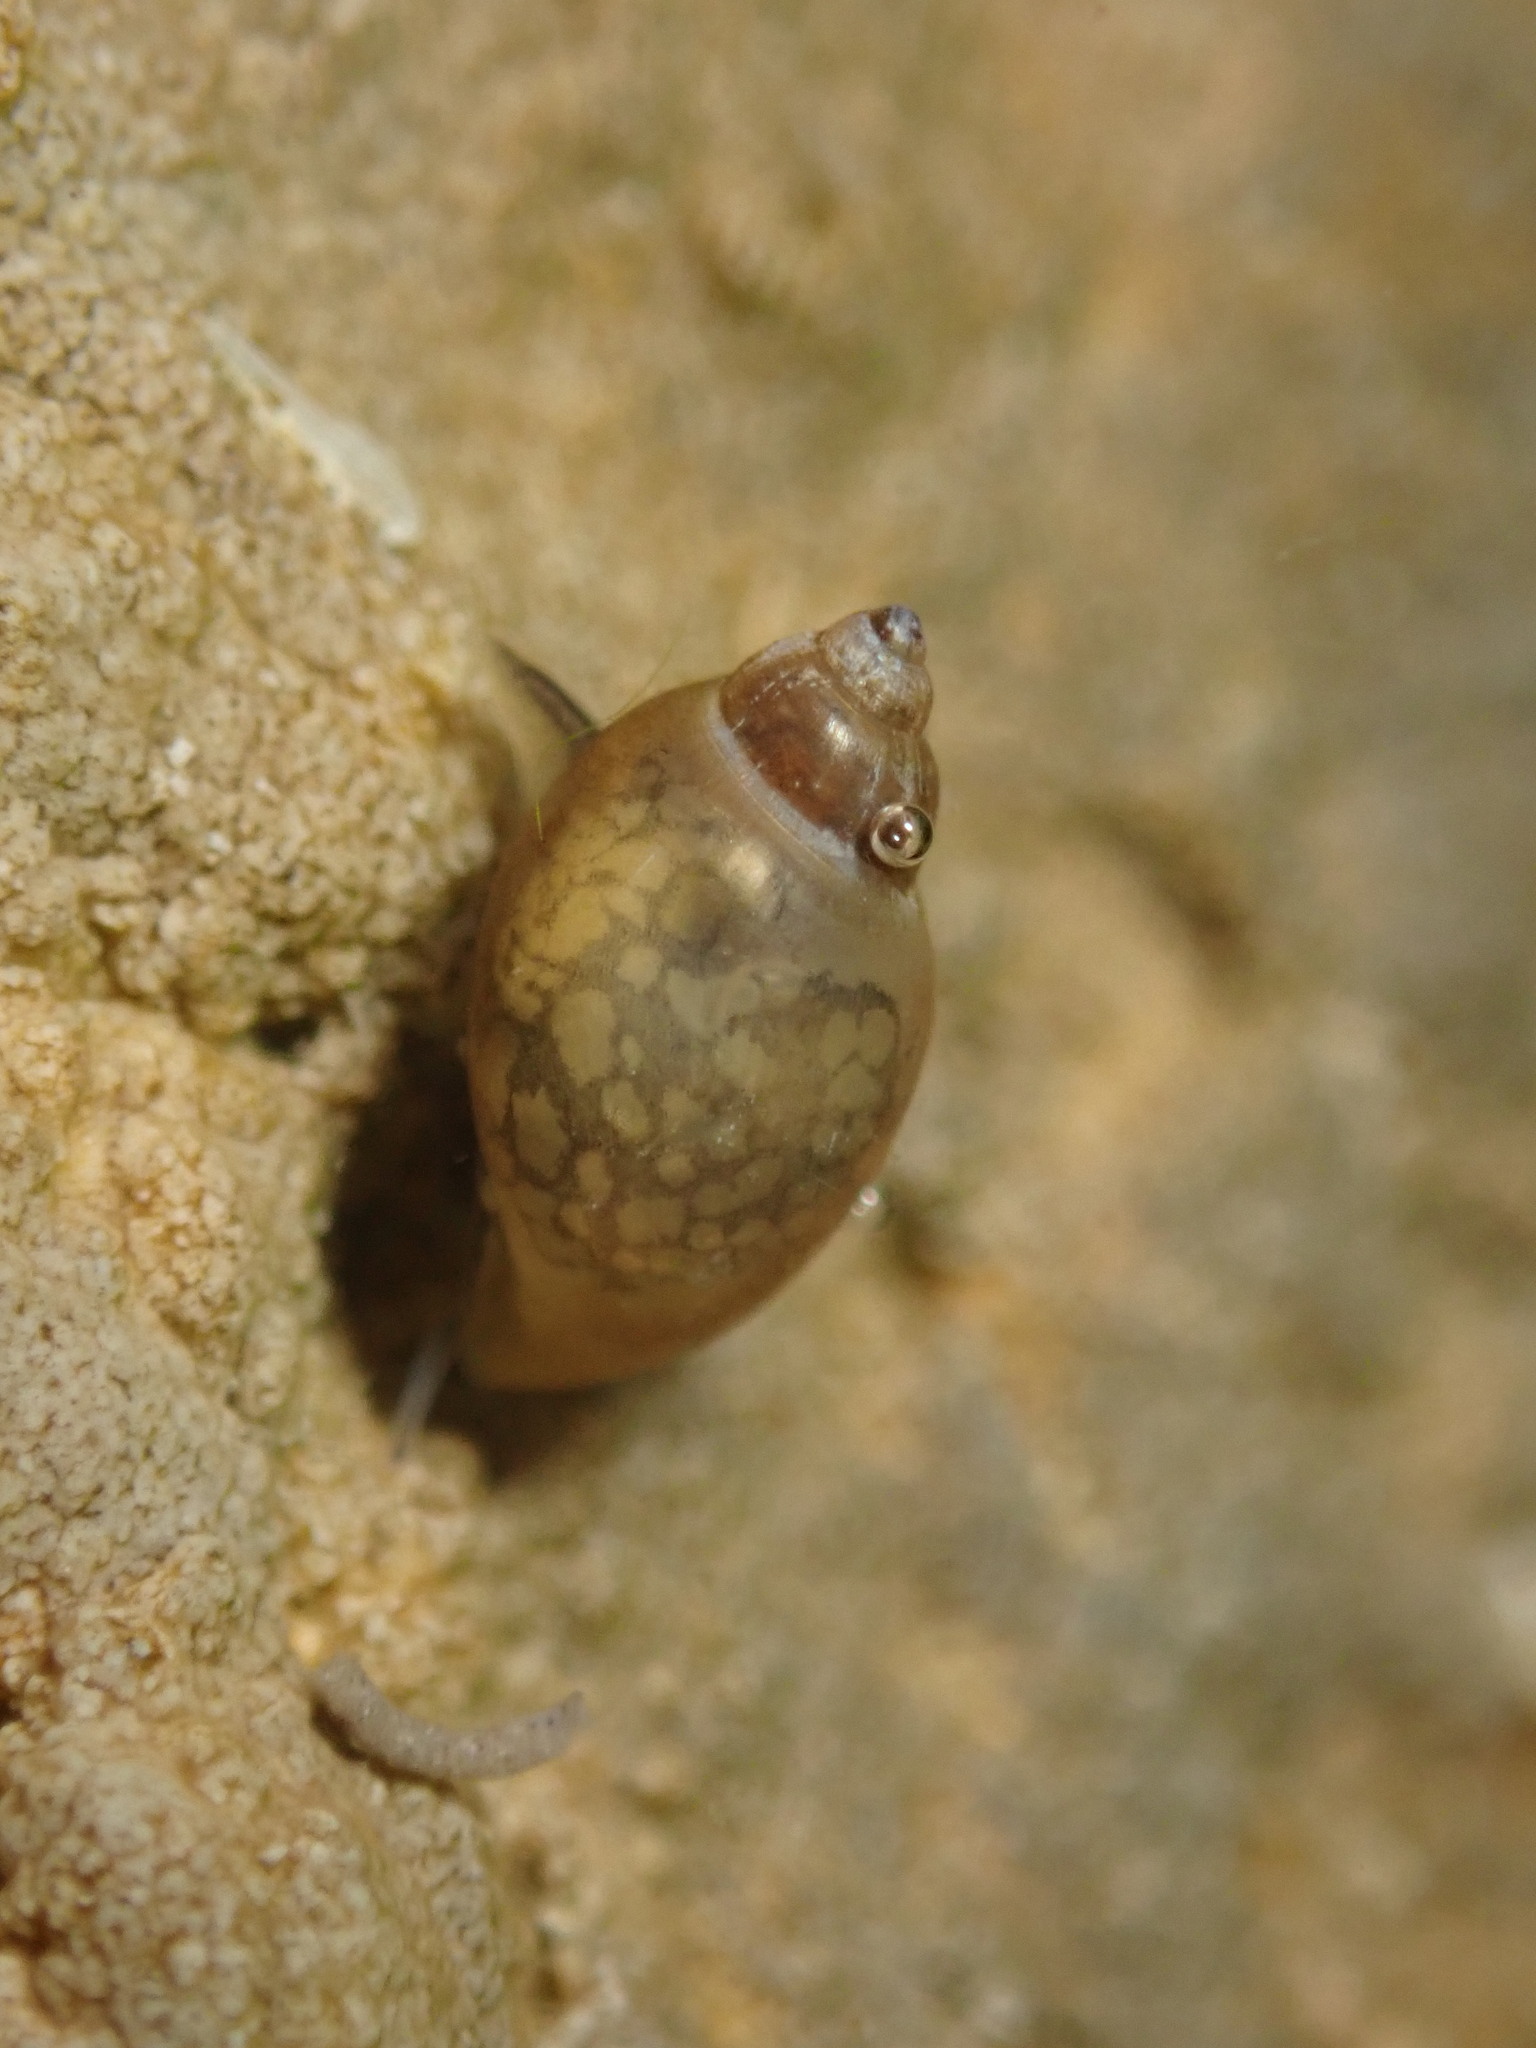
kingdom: Animalia
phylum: Mollusca
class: Gastropoda
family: Physidae
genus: Physella
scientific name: Physella acuta
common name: European physa
